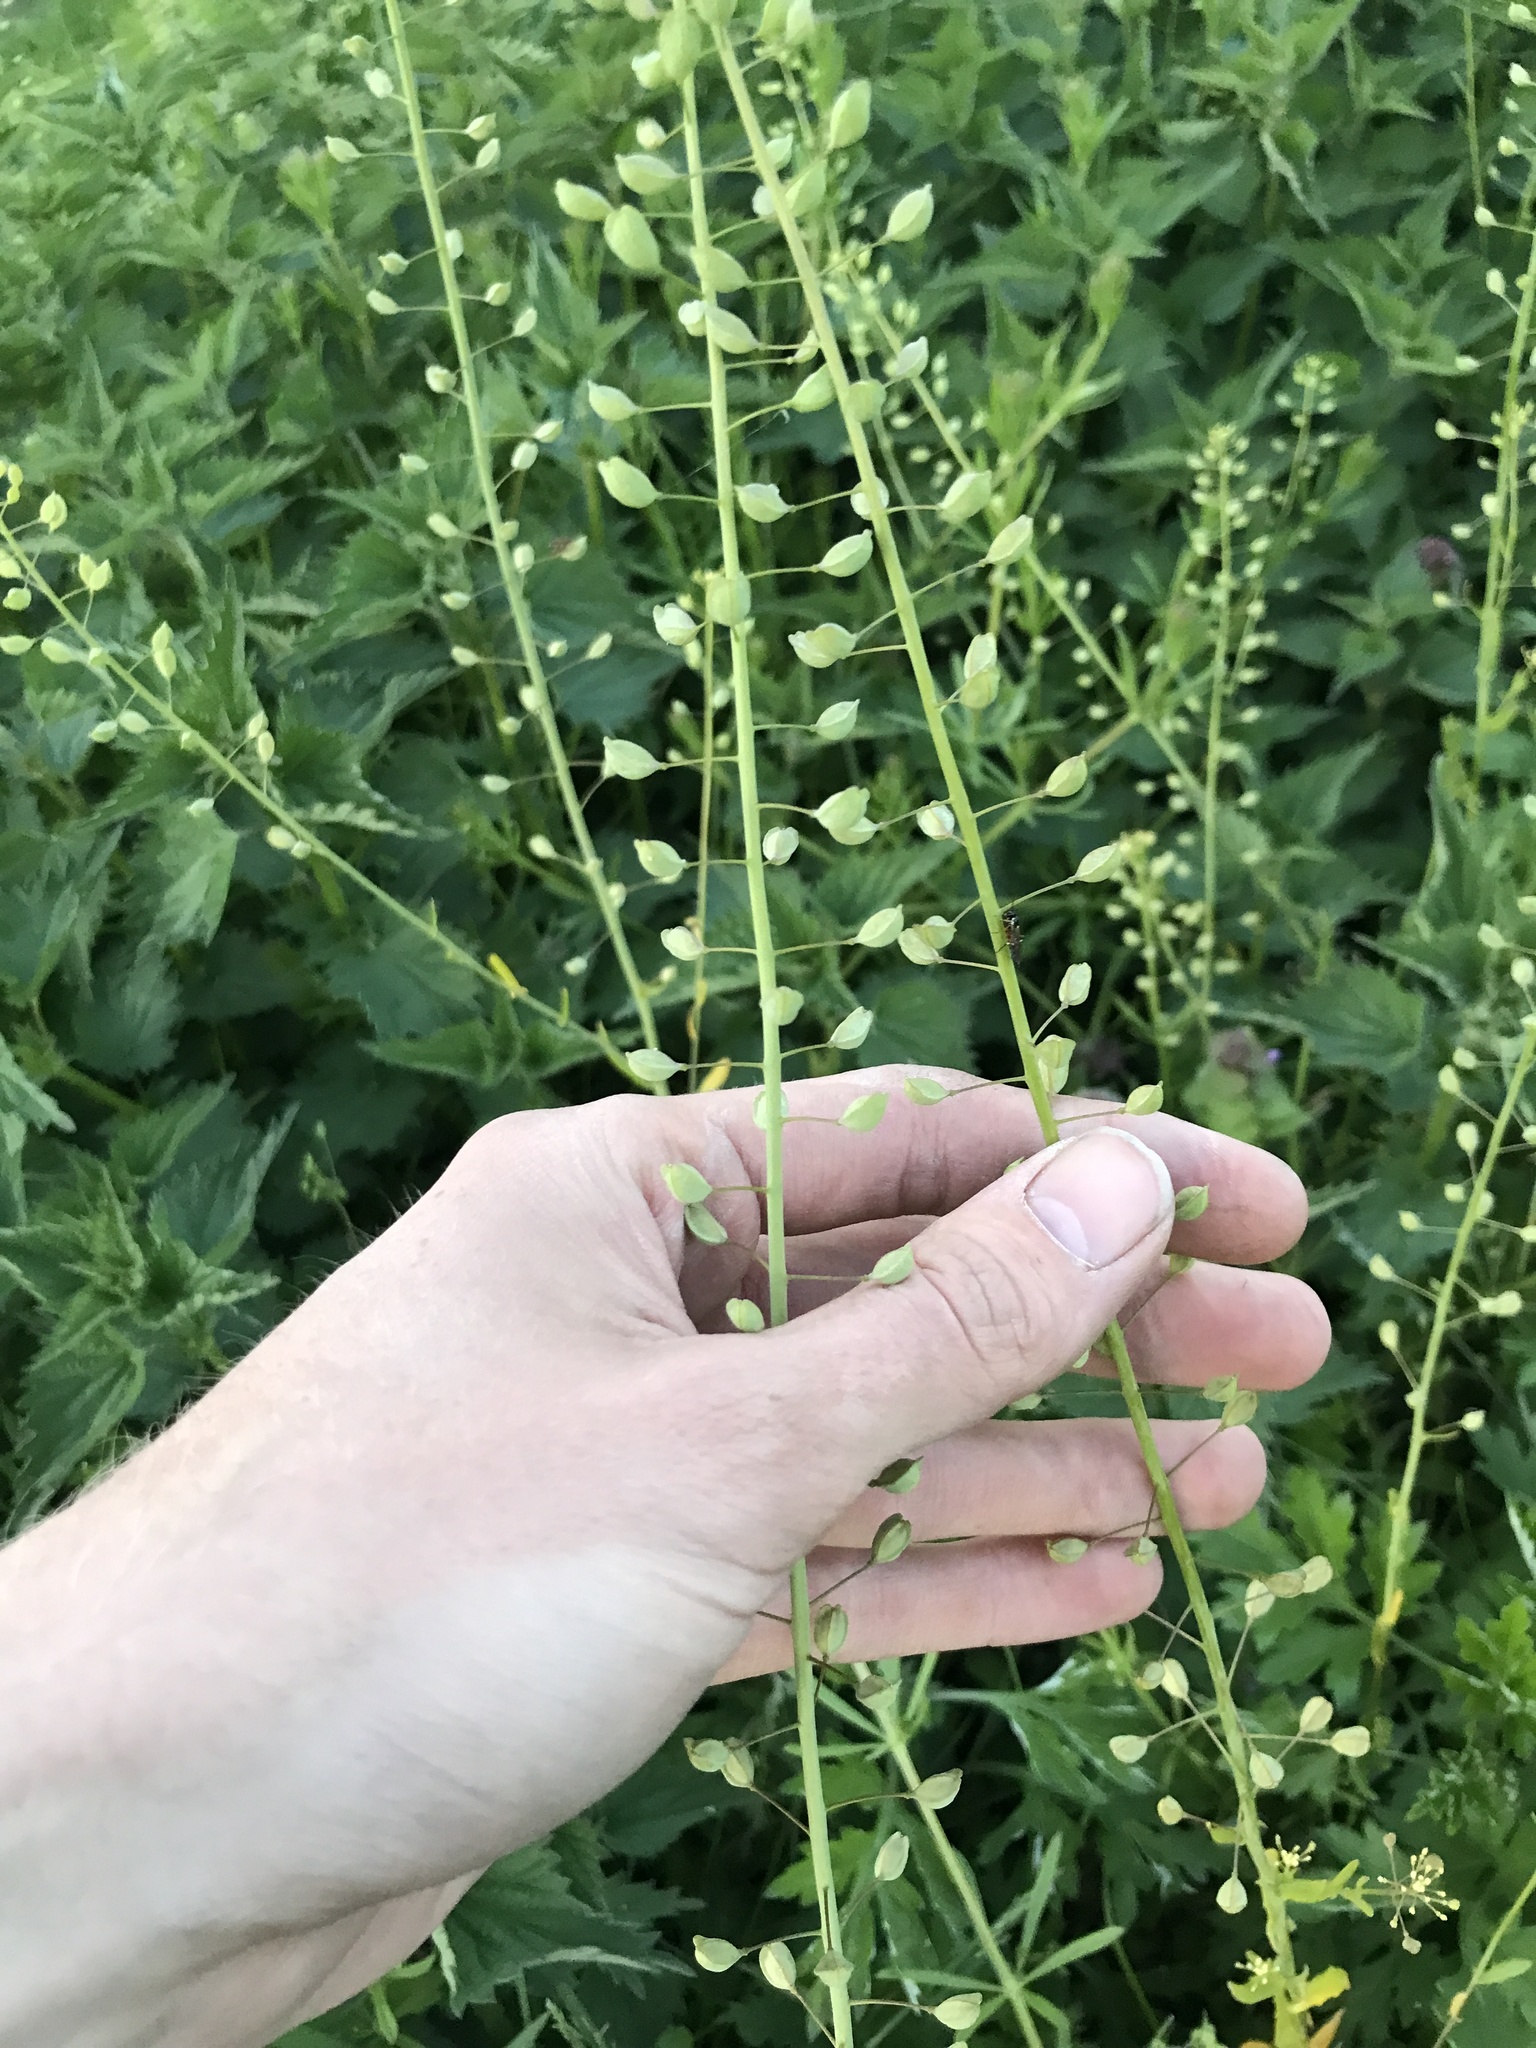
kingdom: Plantae
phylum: Tracheophyta
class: Magnoliopsida
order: Brassicales
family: Brassicaceae
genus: Mummenhoffia
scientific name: Mummenhoffia alliacea
